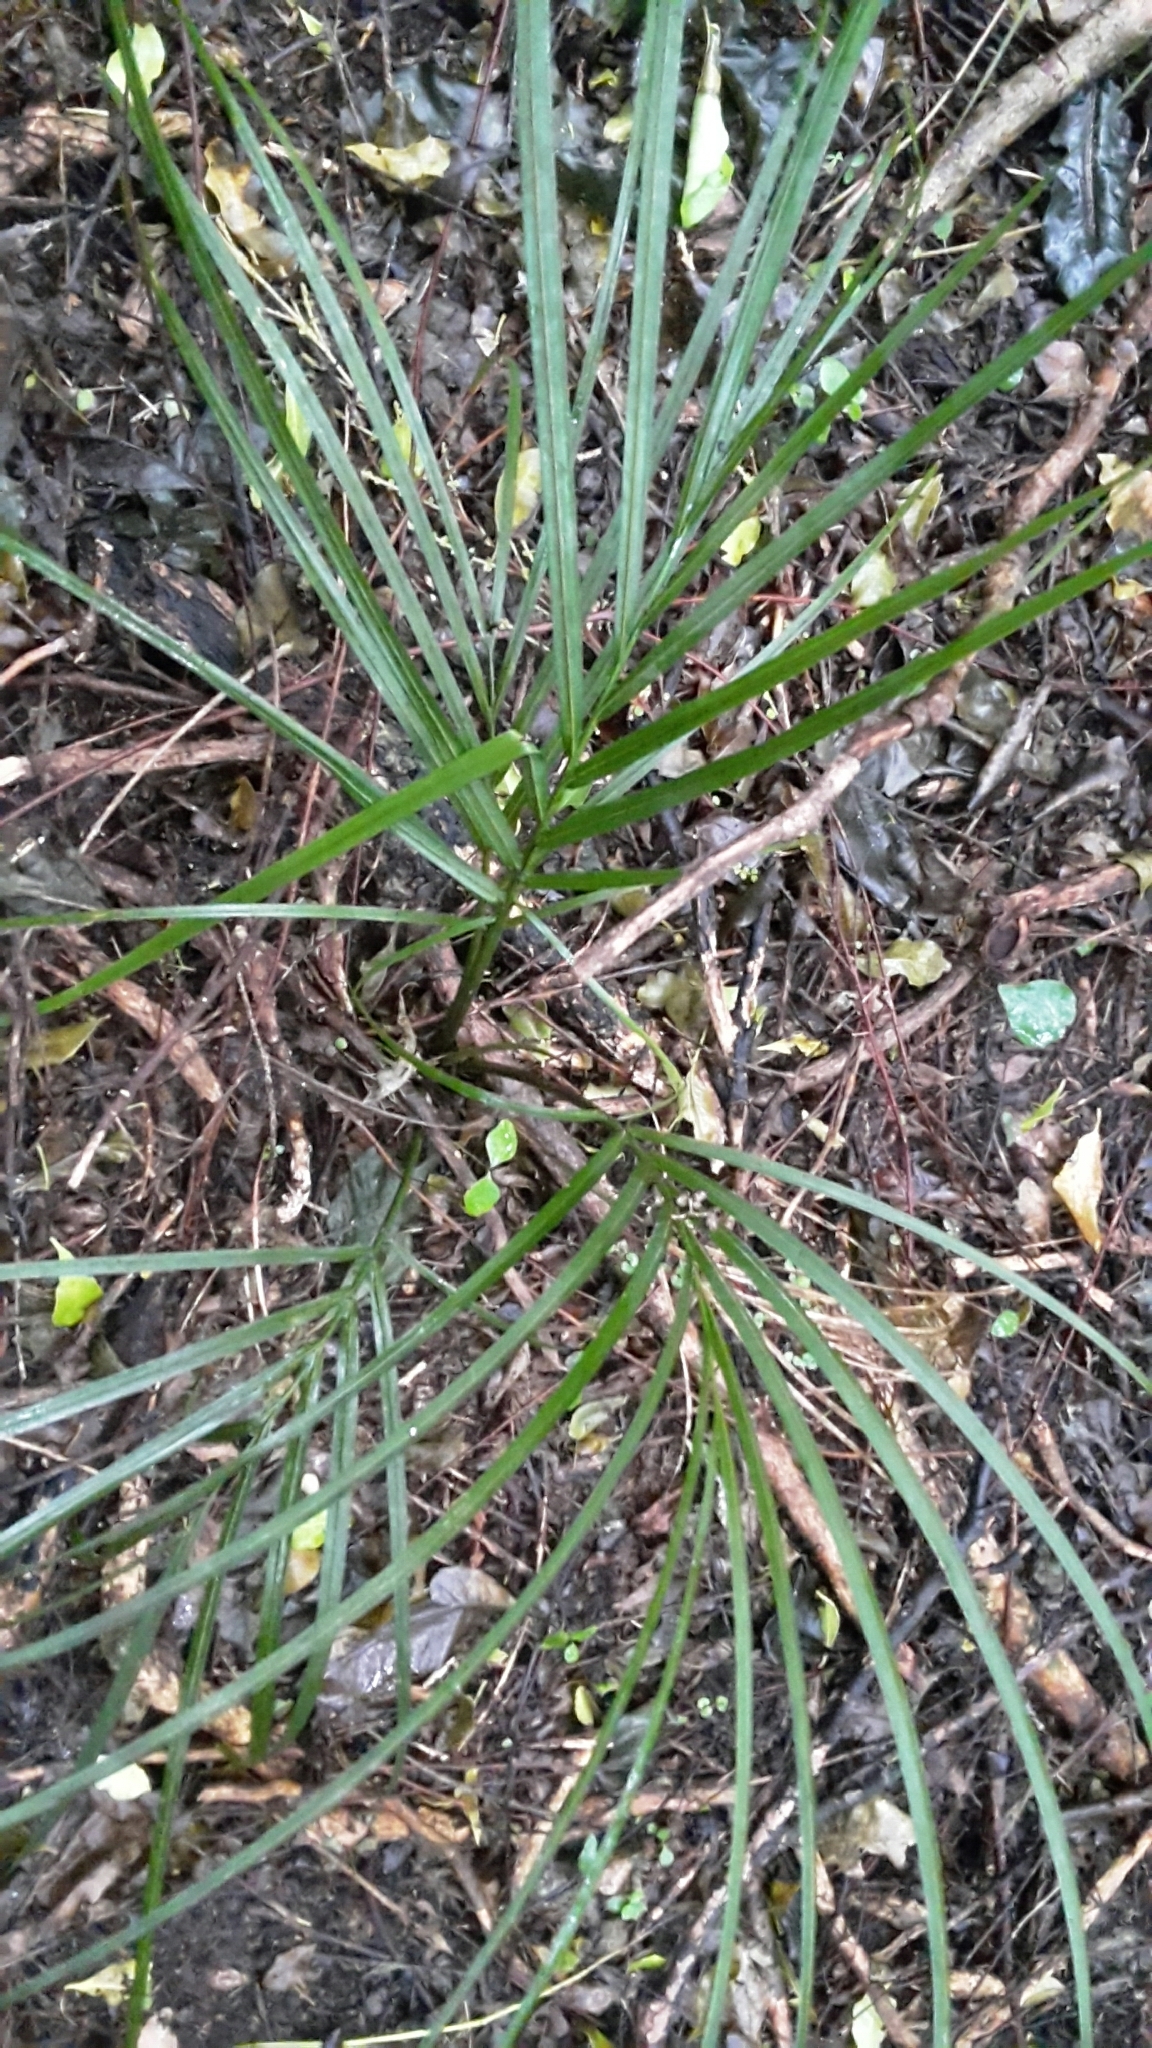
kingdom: Plantae
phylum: Tracheophyta
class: Liliopsida
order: Arecales
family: Arecaceae
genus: Rhopalostylis
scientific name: Rhopalostylis sapida
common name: Feather-duster palm
